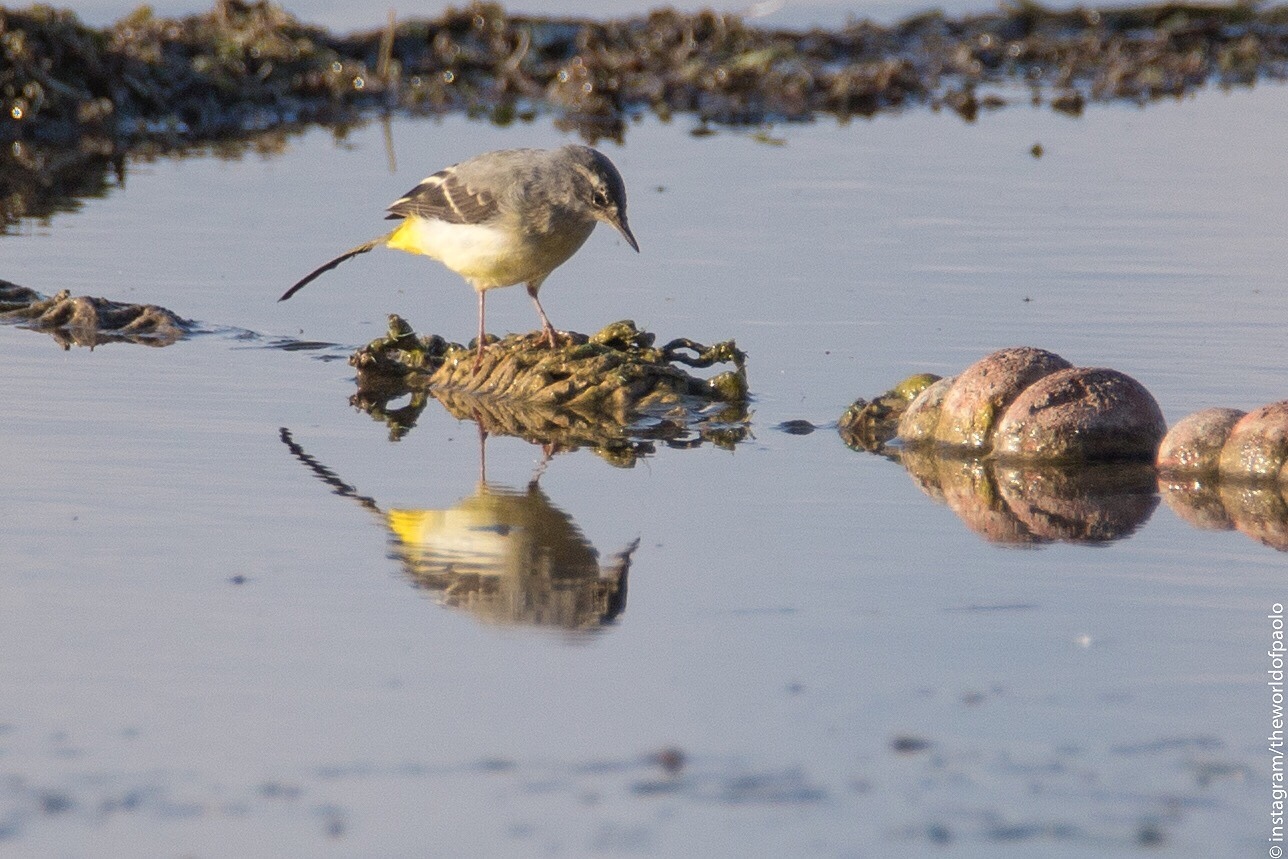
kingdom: Animalia
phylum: Chordata
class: Aves
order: Passeriformes
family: Motacillidae
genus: Motacilla
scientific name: Motacilla cinerea
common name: Grey wagtail
